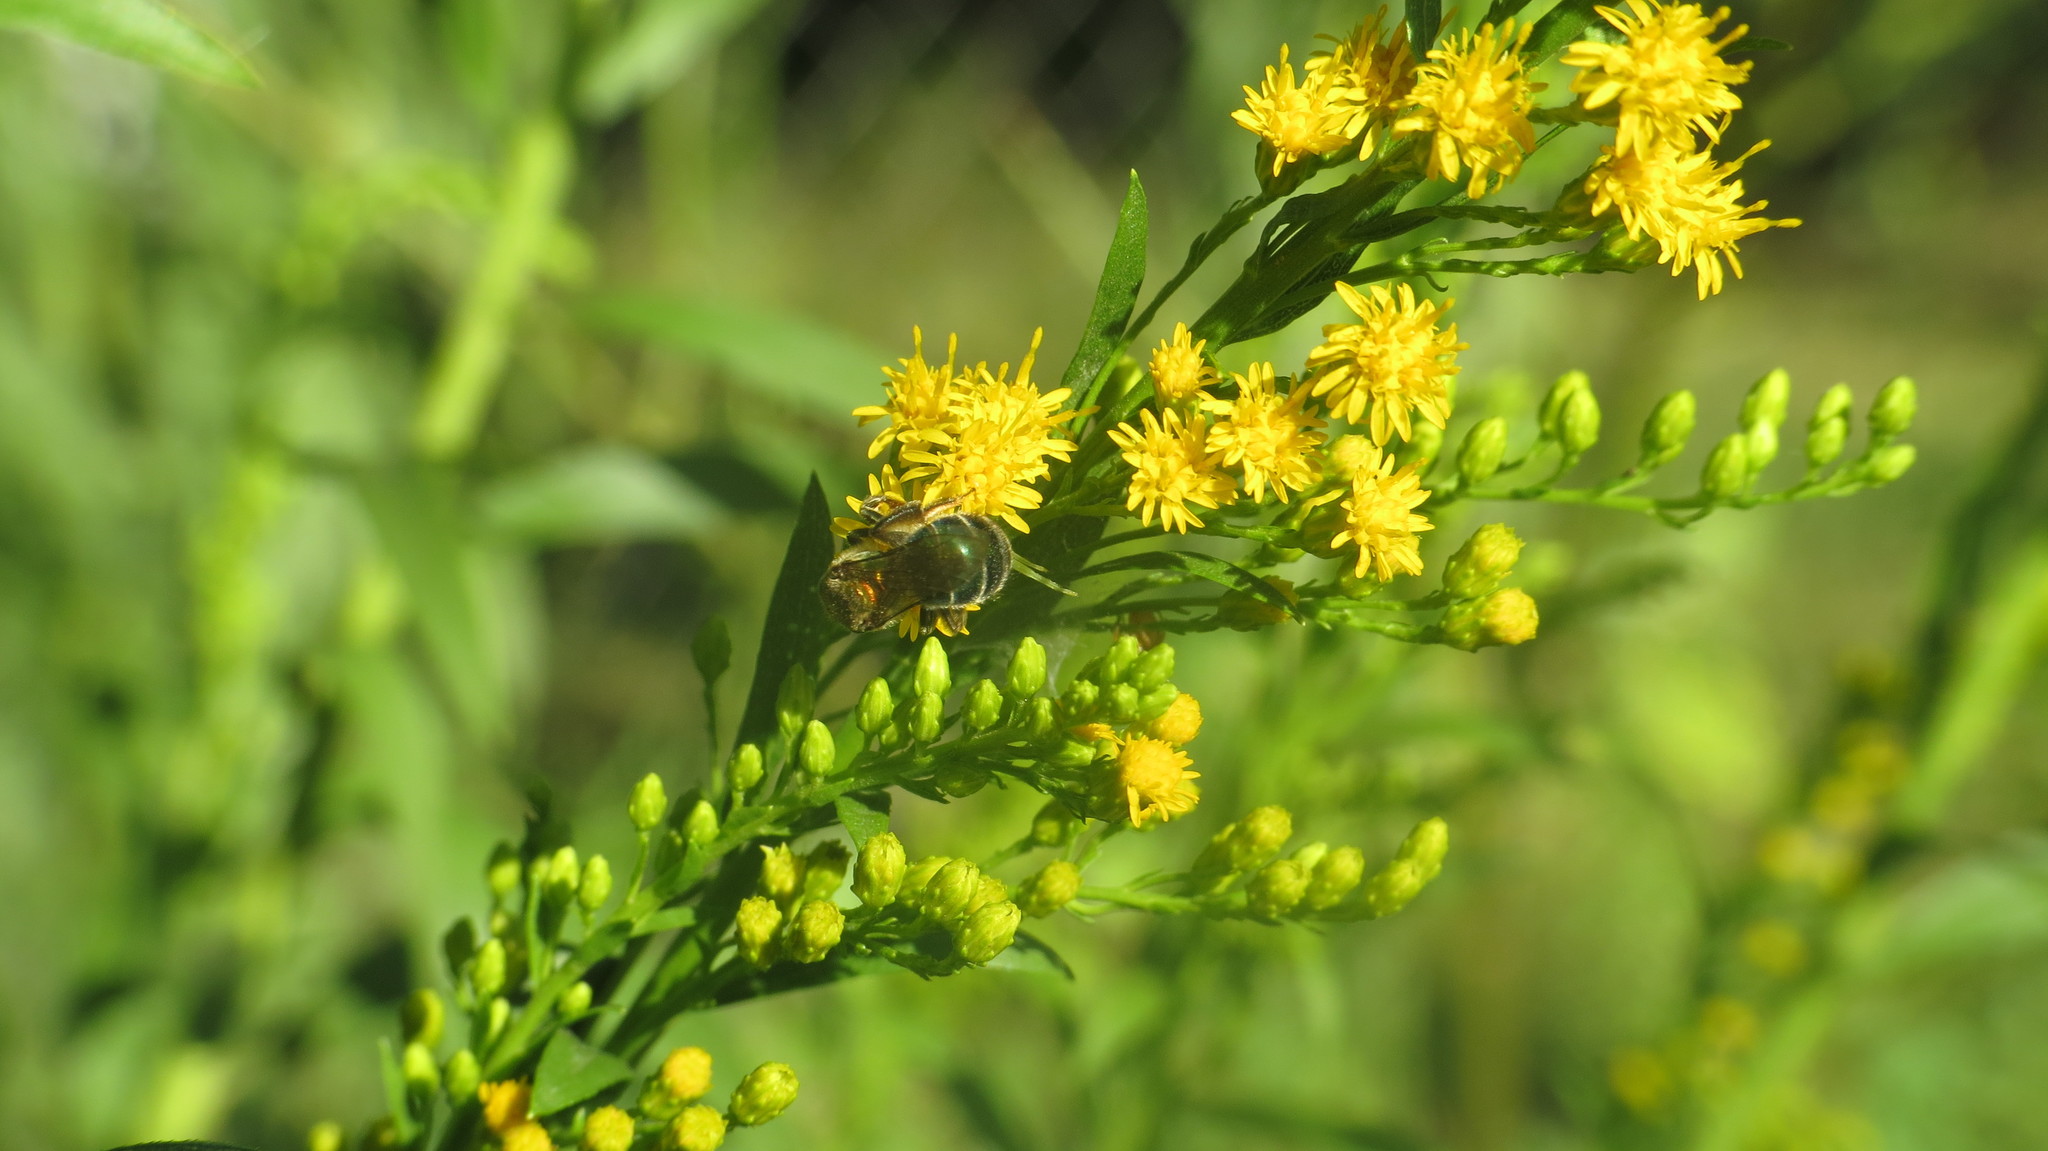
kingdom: Animalia
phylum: Arthropoda
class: Insecta
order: Hymenoptera
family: Halictidae
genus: Augochloropsis
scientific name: Augochloropsis tupacamaru
